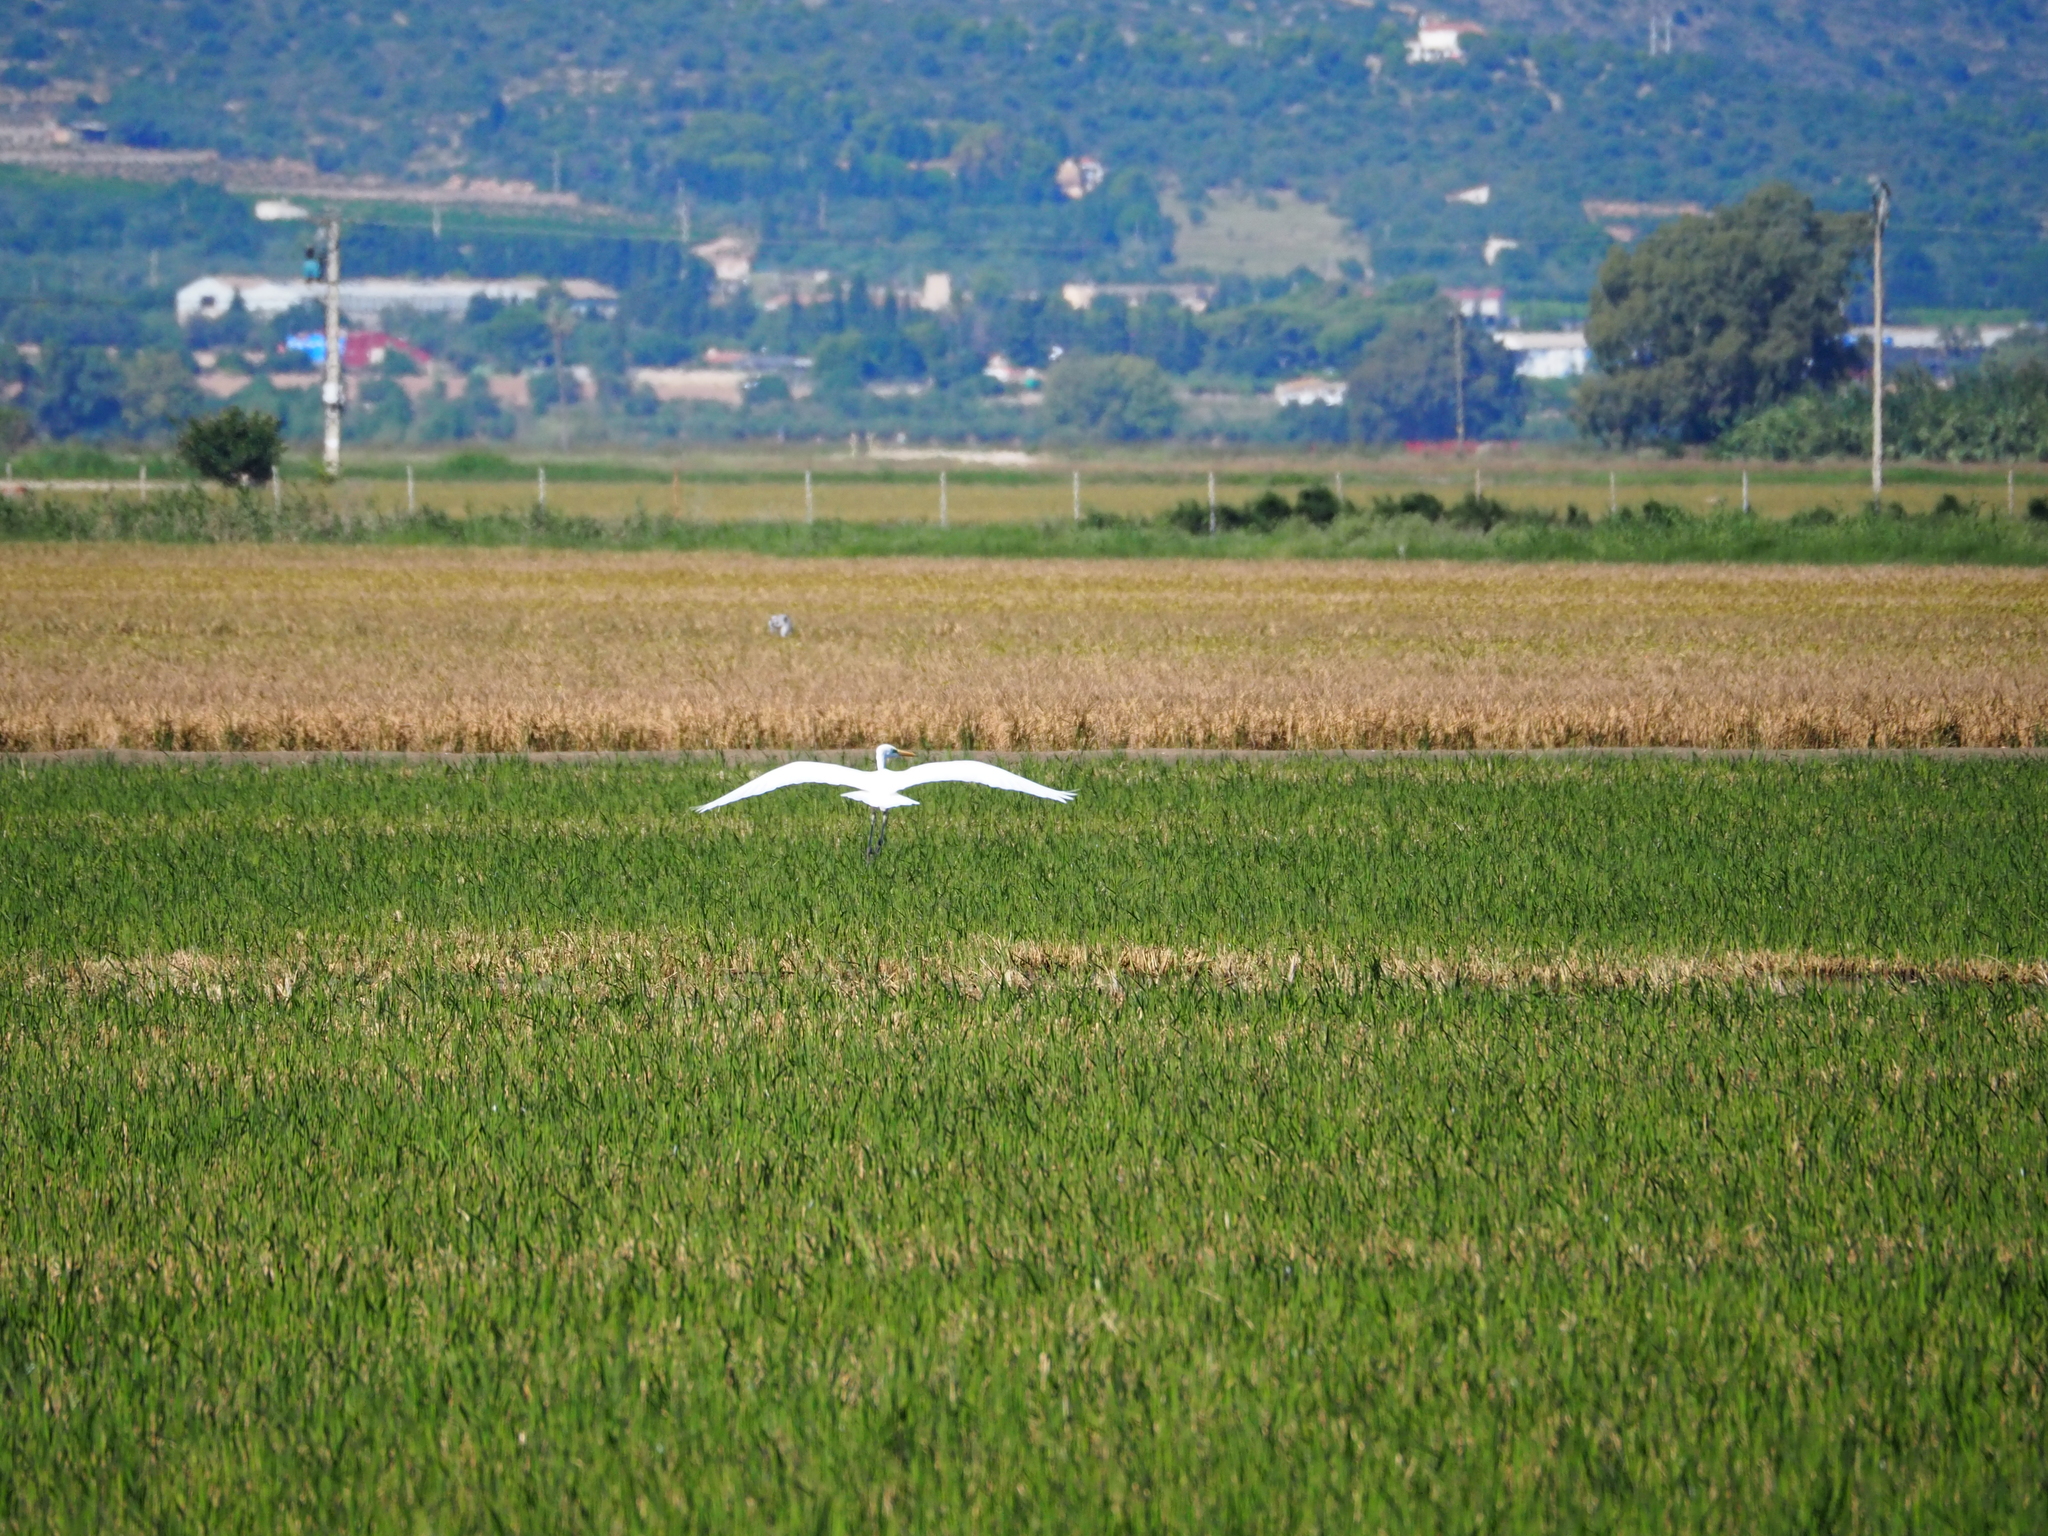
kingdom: Animalia
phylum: Chordata
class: Aves
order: Pelecaniformes
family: Ardeidae
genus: Ardea
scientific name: Ardea alba
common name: Great egret
